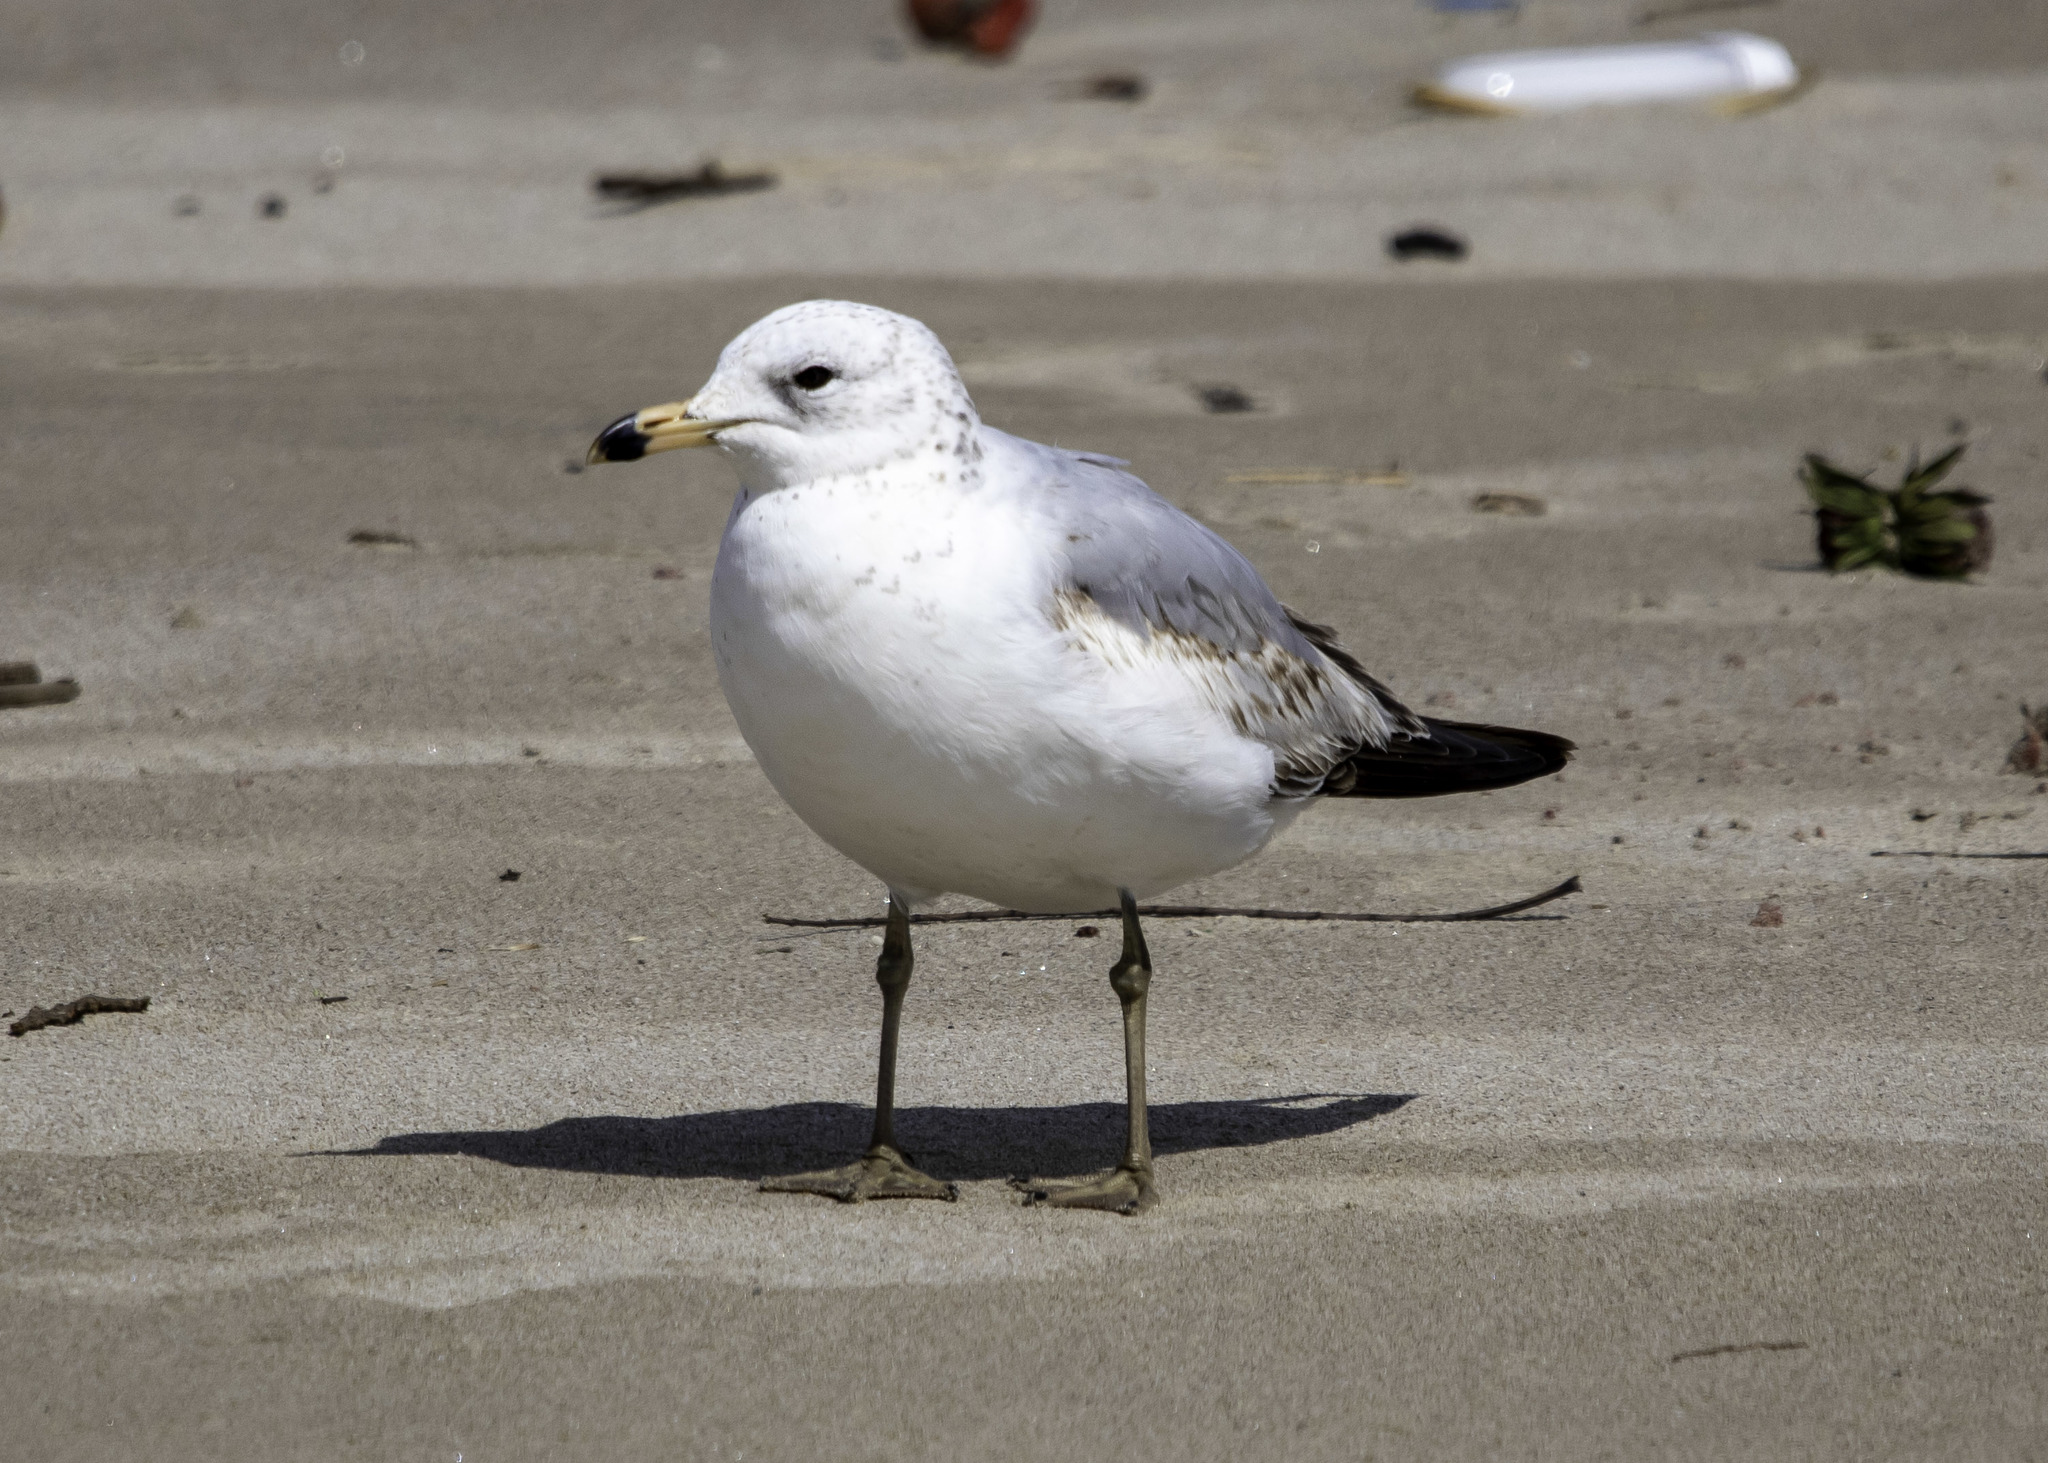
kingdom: Animalia
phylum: Chordata
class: Aves
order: Charadriiformes
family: Laridae
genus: Larus
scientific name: Larus delawarensis
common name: Ring-billed gull
